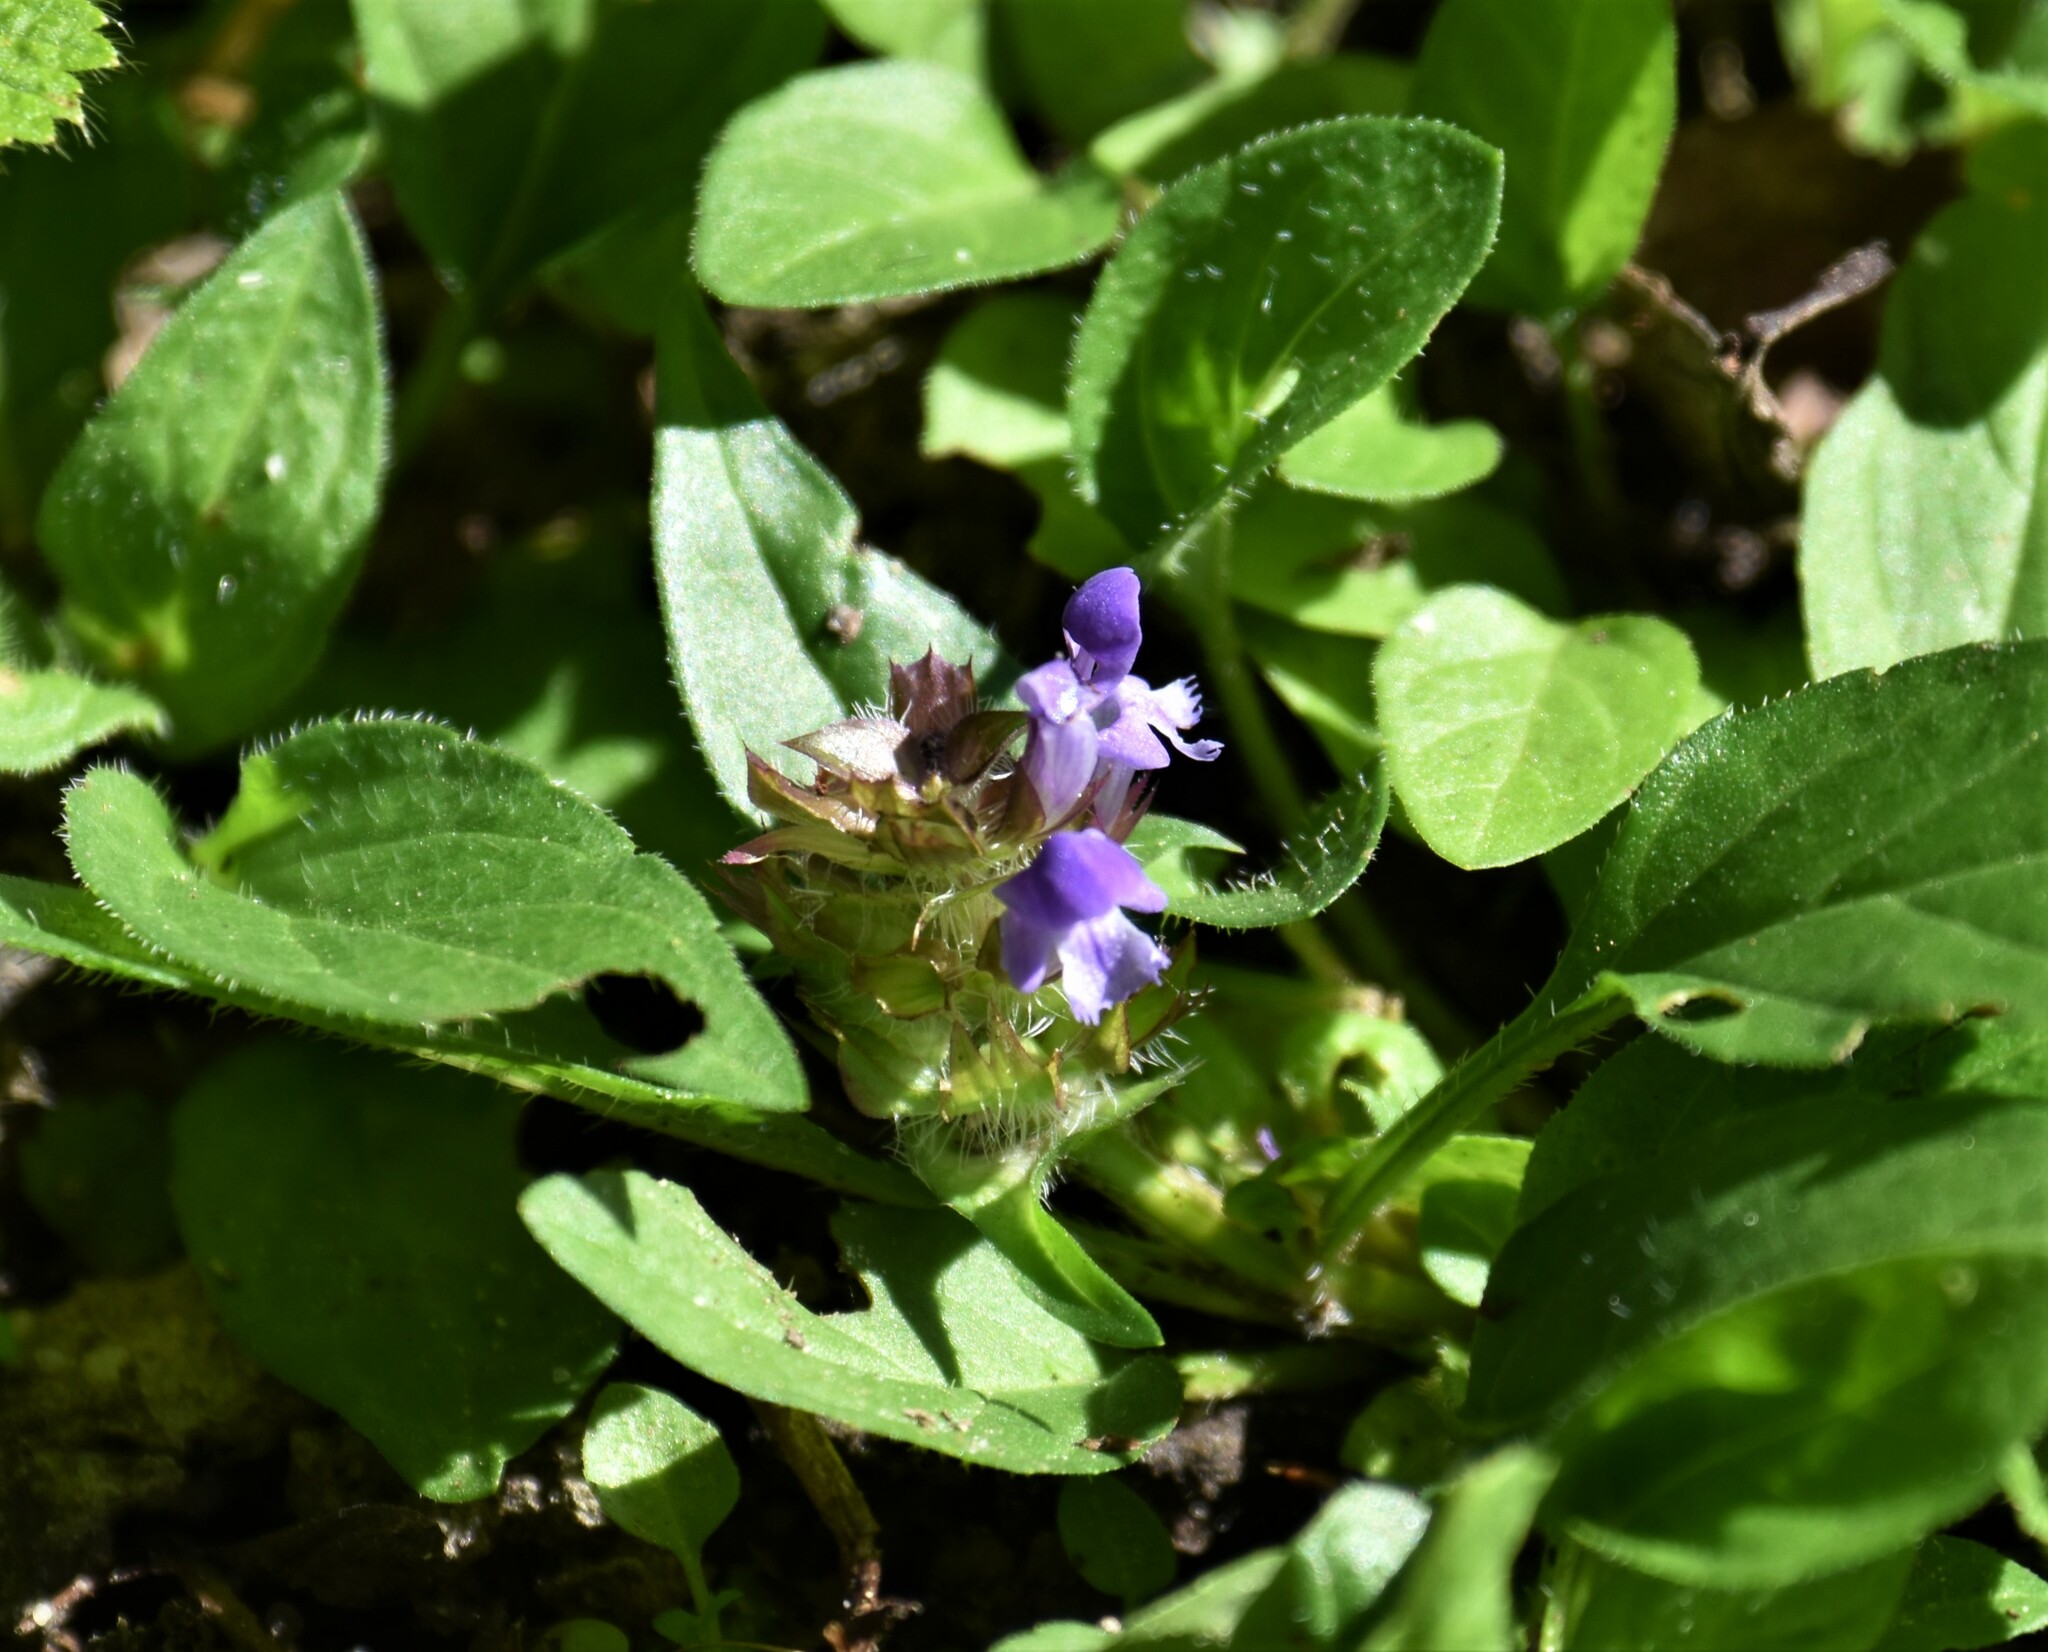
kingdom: Plantae
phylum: Tracheophyta
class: Magnoliopsida
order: Lamiales
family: Lamiaceae
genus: Prunella
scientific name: Prunella vulgaris
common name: Heal-all
